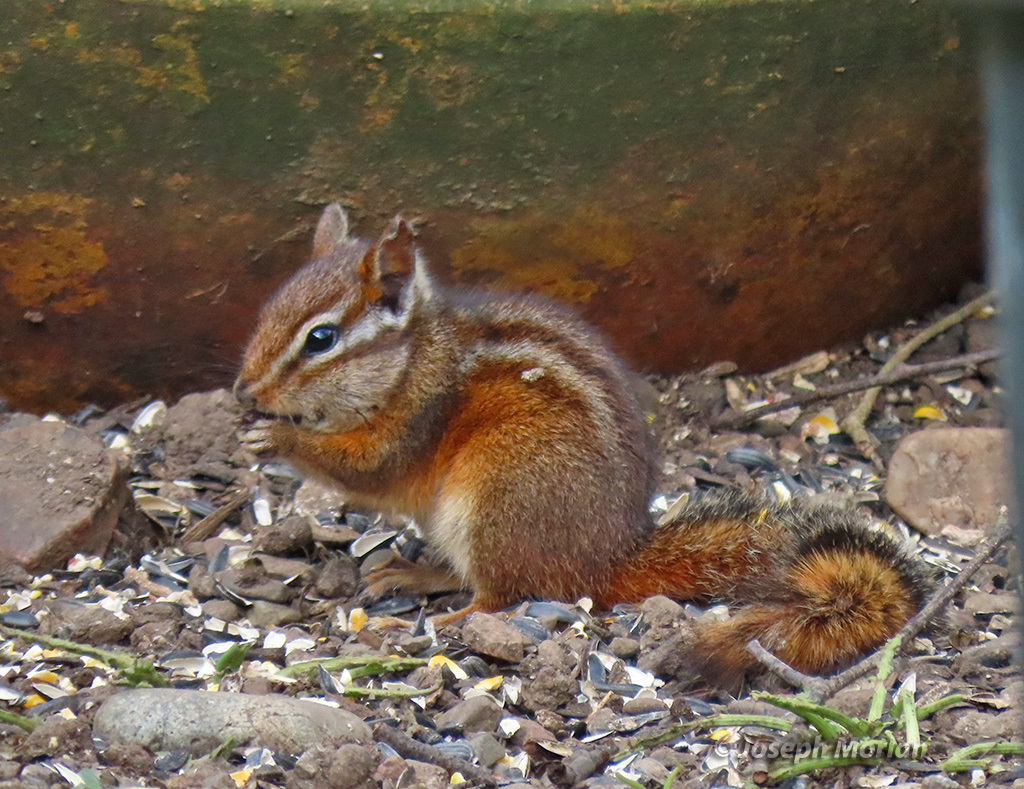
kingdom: Animalia
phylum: Chordata
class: Mammalia
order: Rodentia
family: Sciuridae
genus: Tamias
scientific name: Tamias merriami
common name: Merriam's chipmunk
